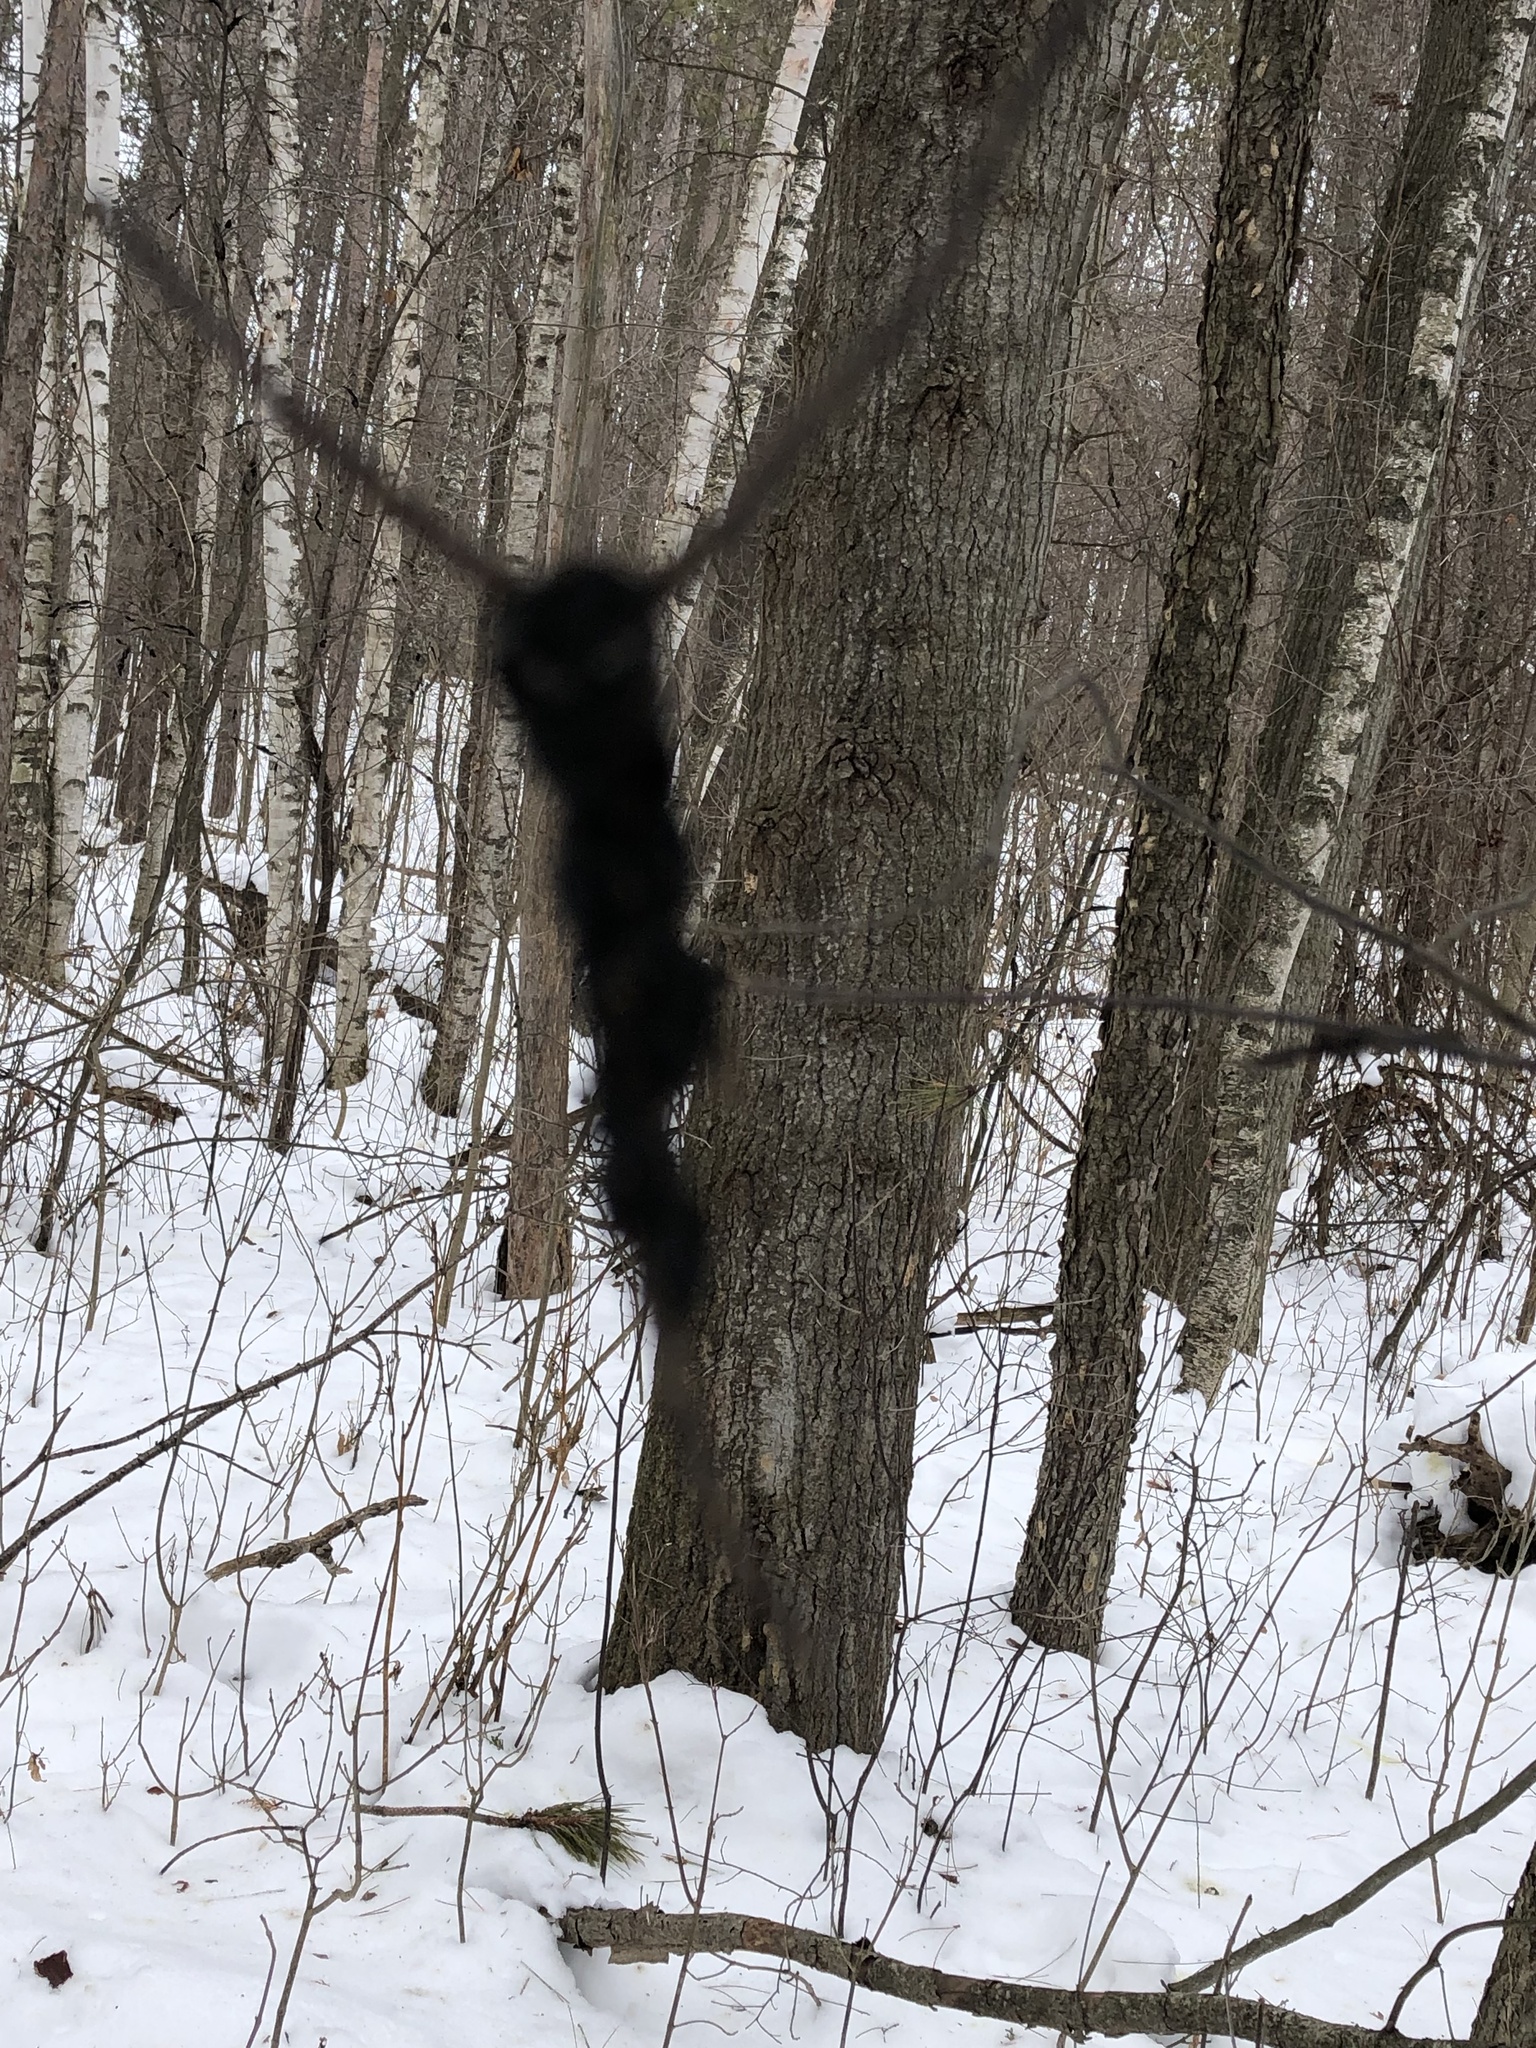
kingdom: Fungi
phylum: Ascomycota
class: Dothideomycetes
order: Venturiales
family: Venturiaceae
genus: Apiosporina
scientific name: Apiosporina morbosa
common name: Black knot
